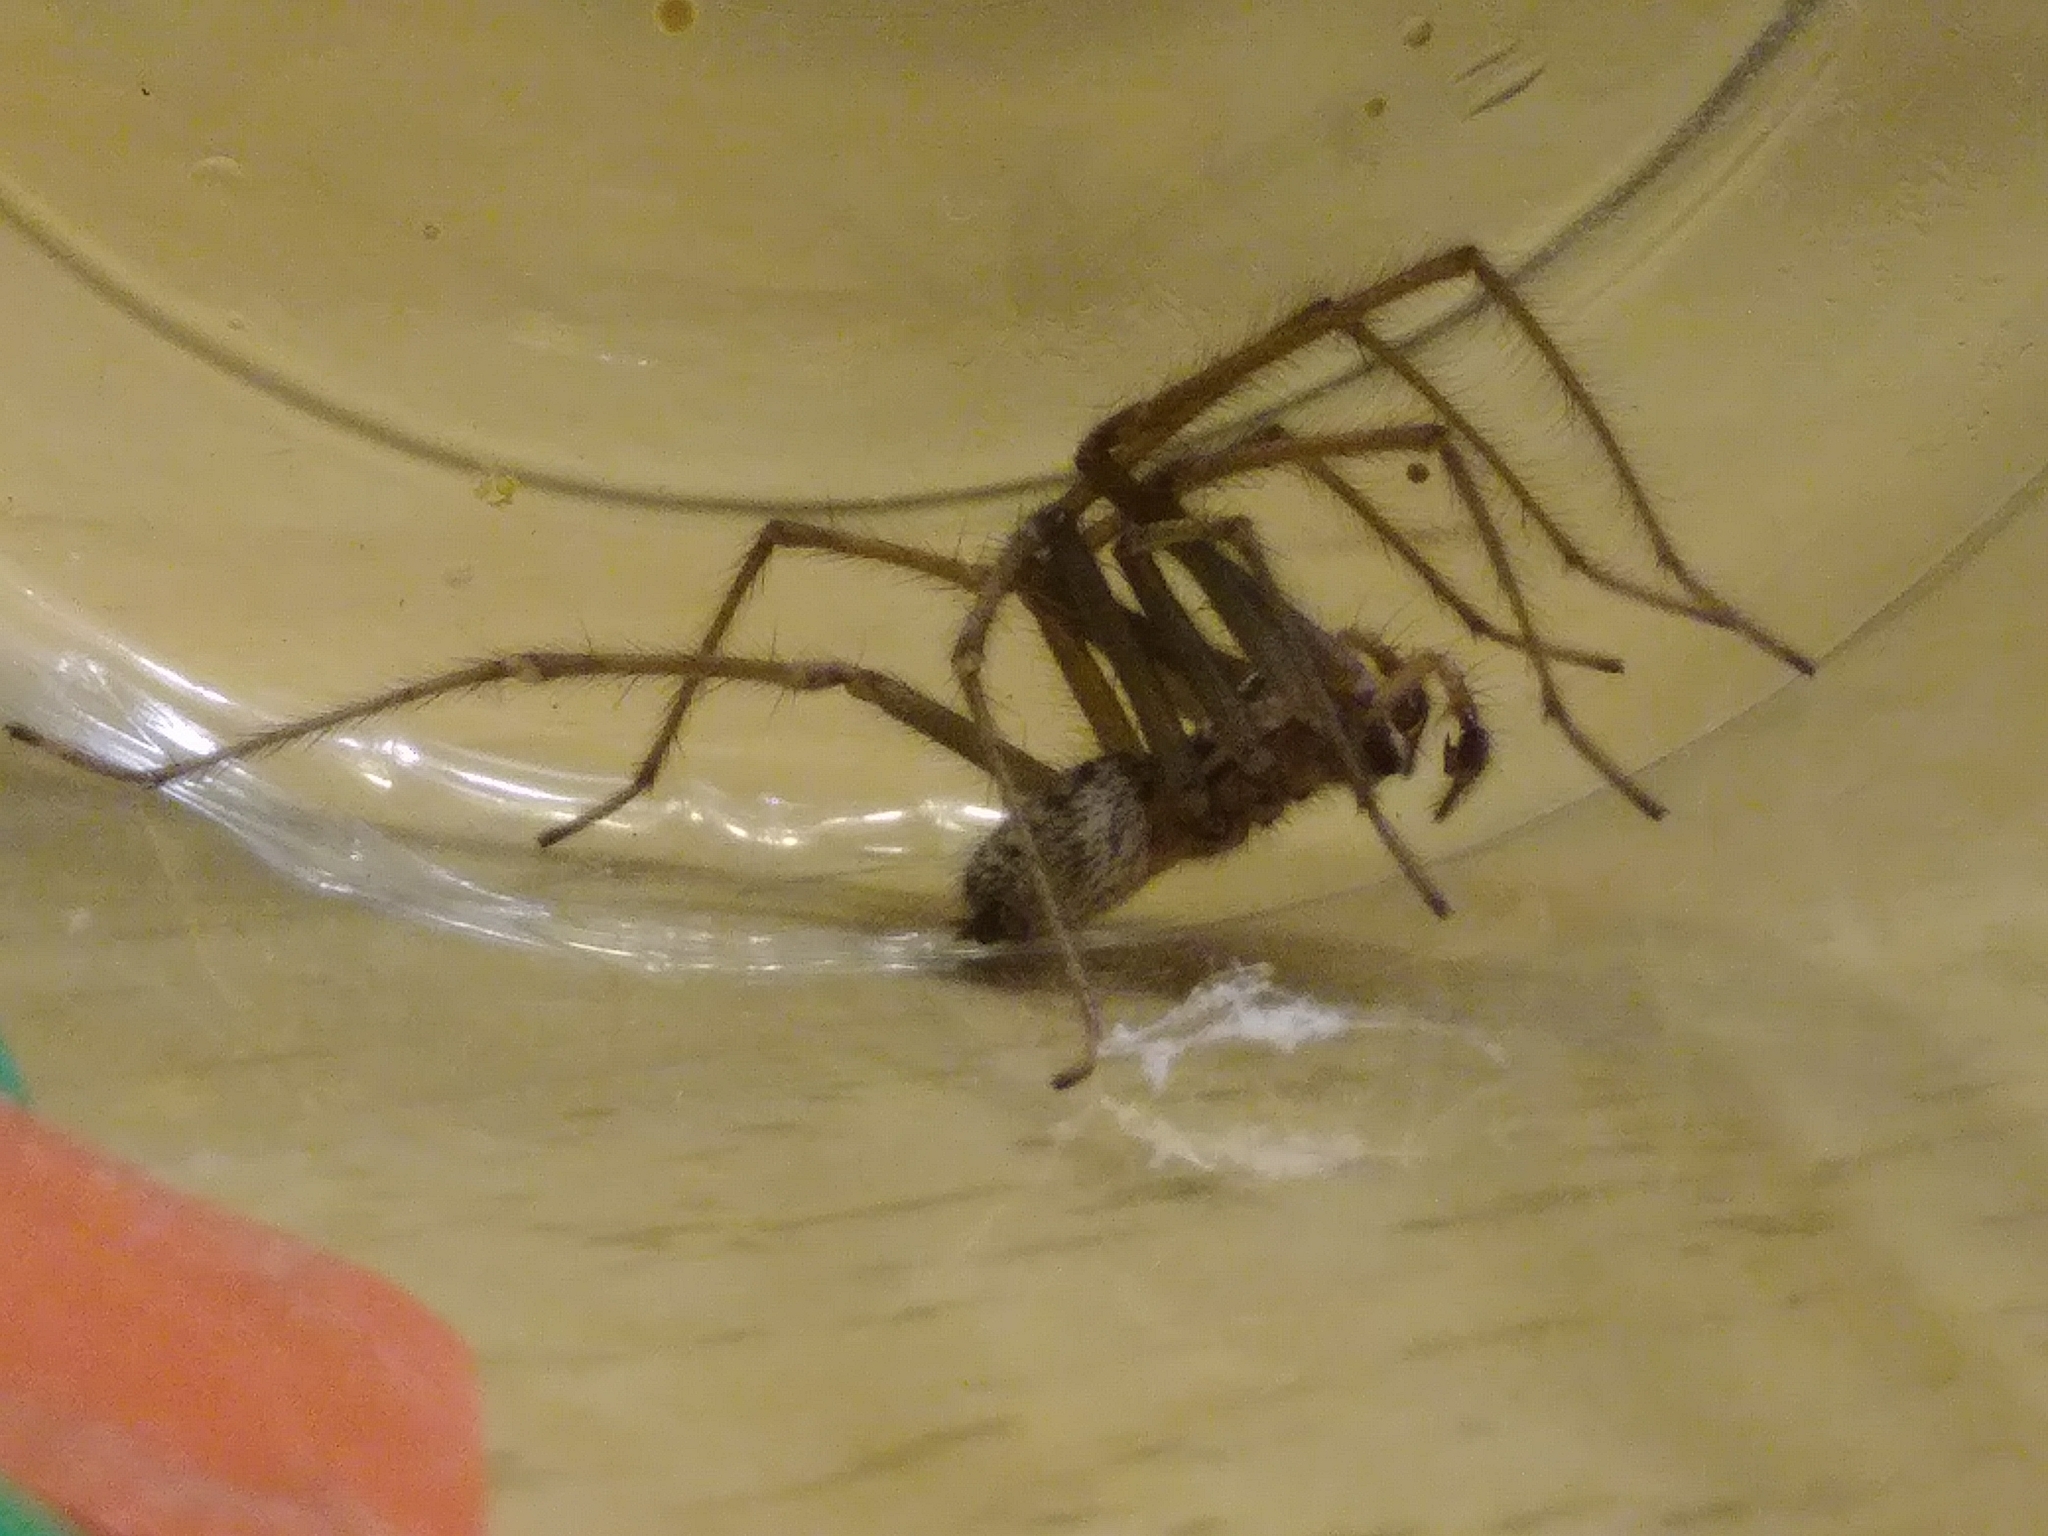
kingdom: Animalia
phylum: Arthropoda
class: Arachnida
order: Araneae
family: Agelenidae
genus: Eratigena
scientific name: Eratigena duellica
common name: Giant house spider
